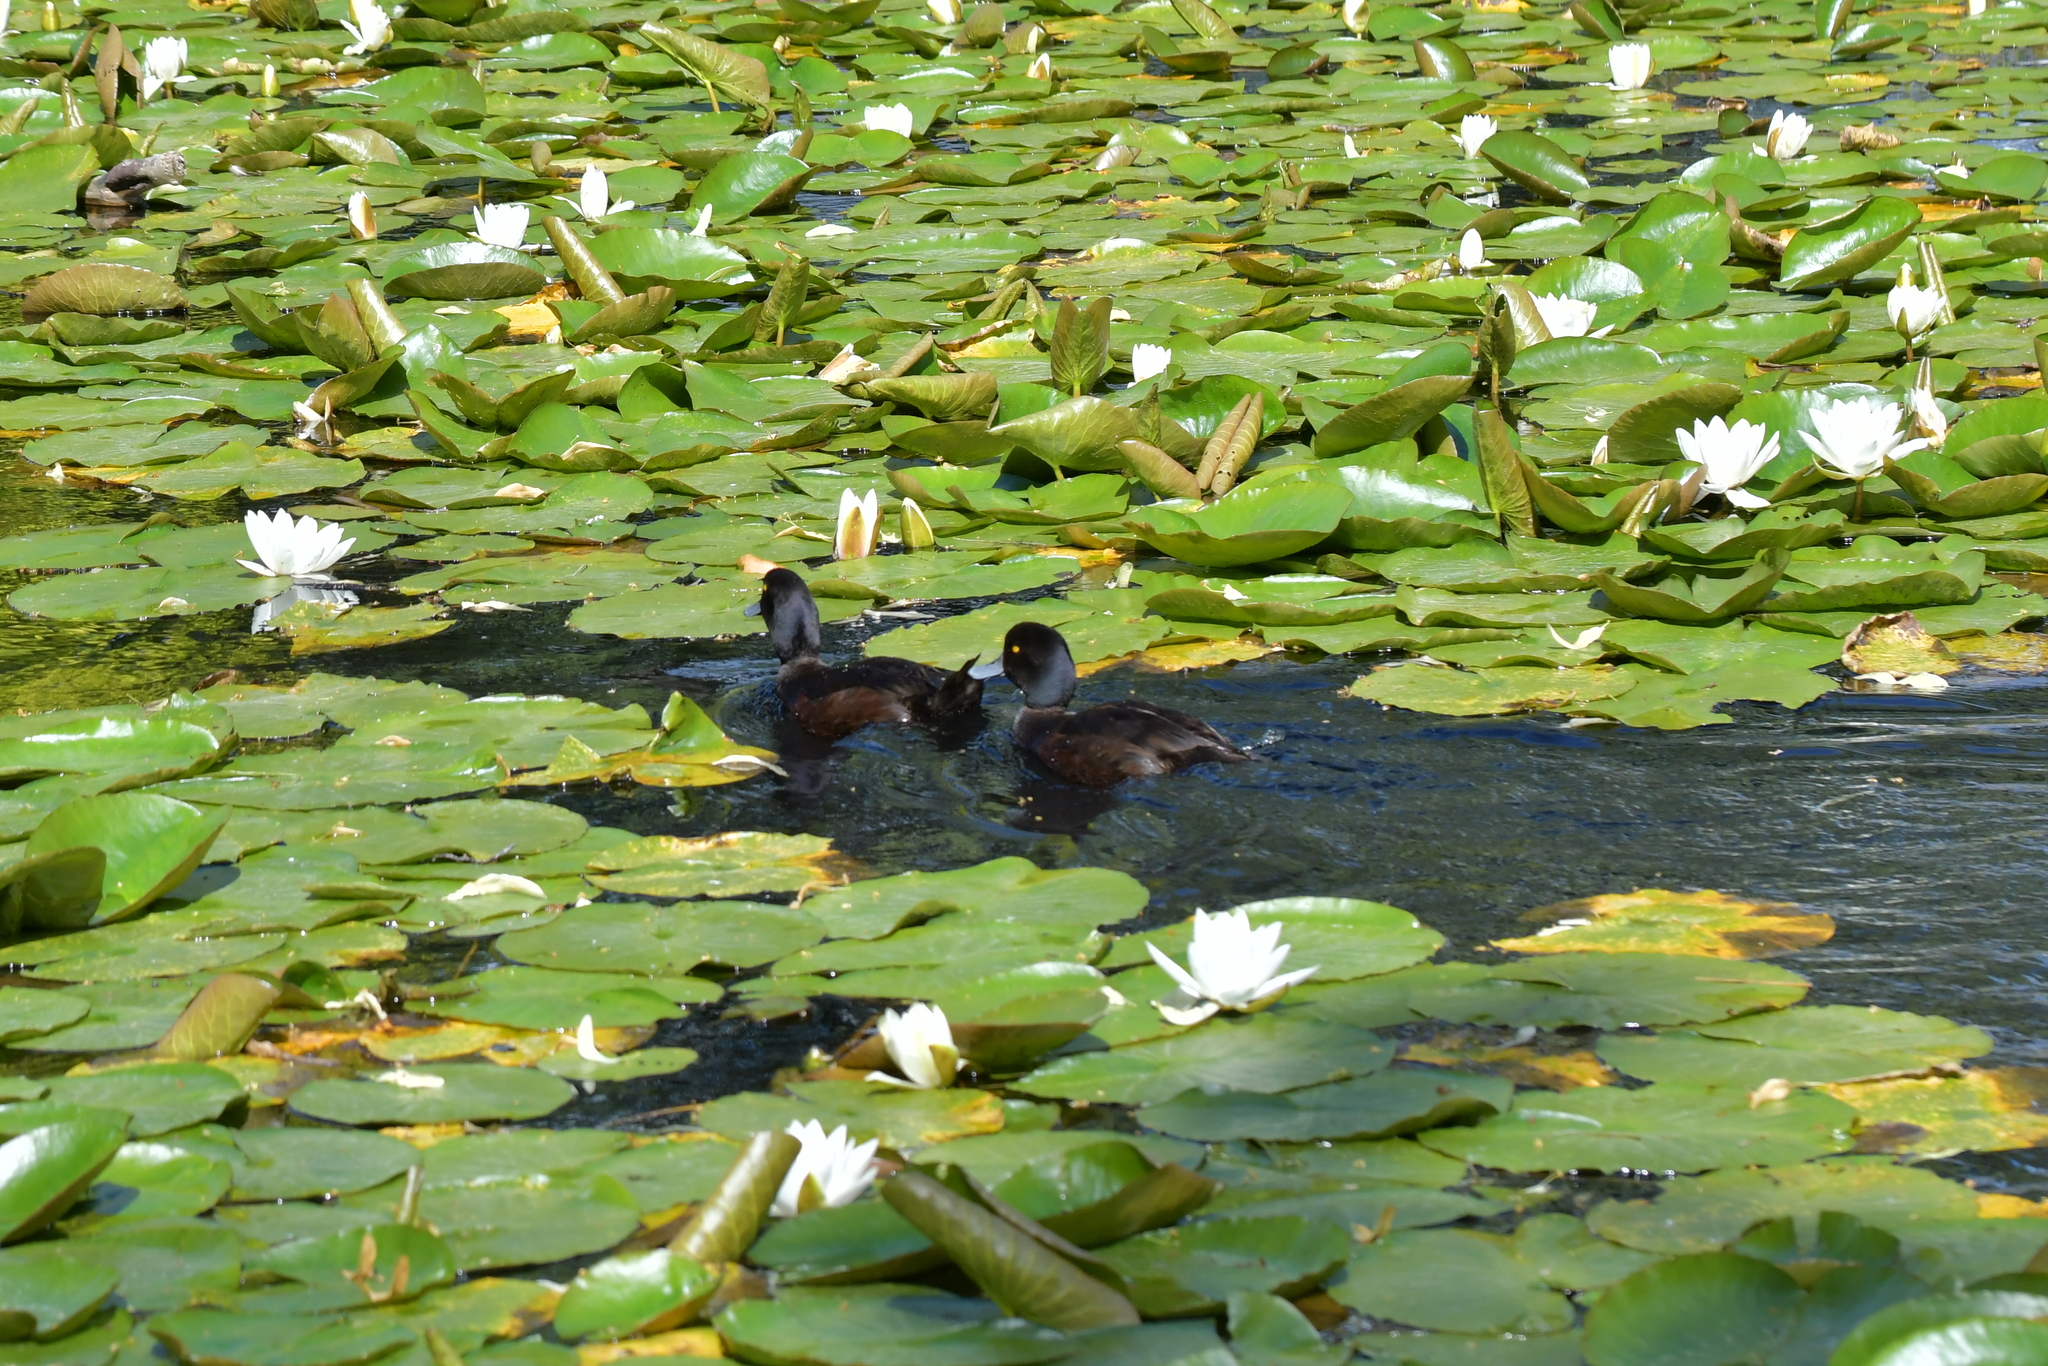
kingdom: Animalia
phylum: Chordata
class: Aves
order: Anseriformes
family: Anatidae
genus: Aythya
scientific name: Aythya novaeseelandiae
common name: New zealand scaup
